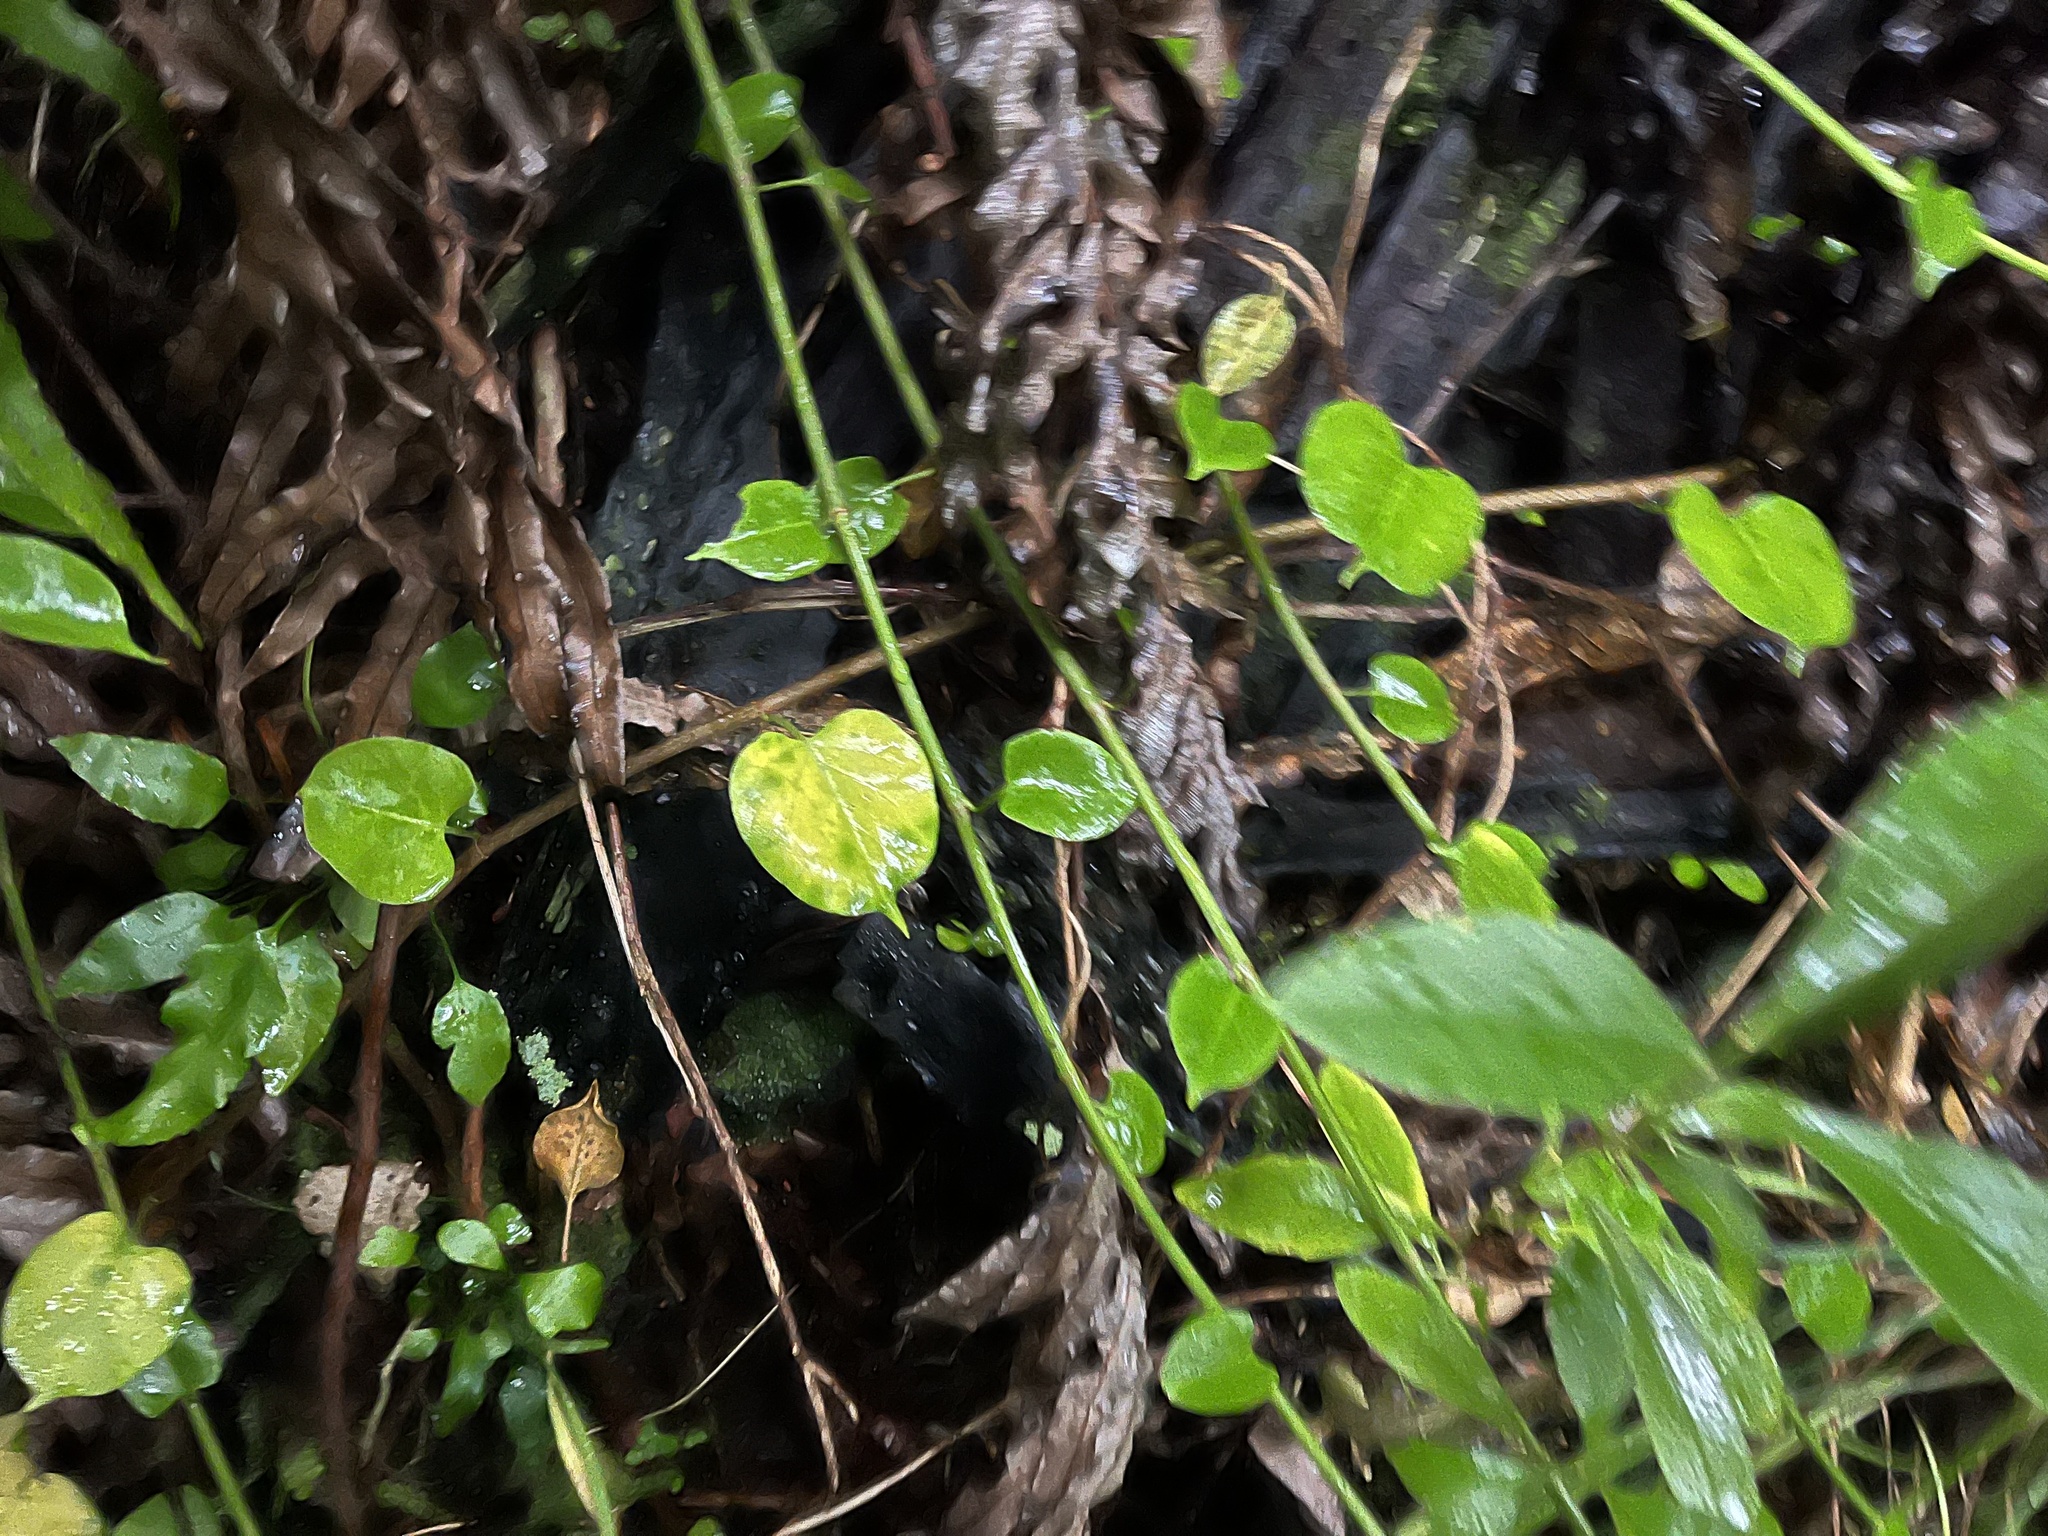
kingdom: Plantae
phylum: Tracheophyta
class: Magnoliopsida
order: Caryophyllales
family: Polygonaceae
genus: Muehlenbeckia
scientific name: Muehlenbeckia australis
